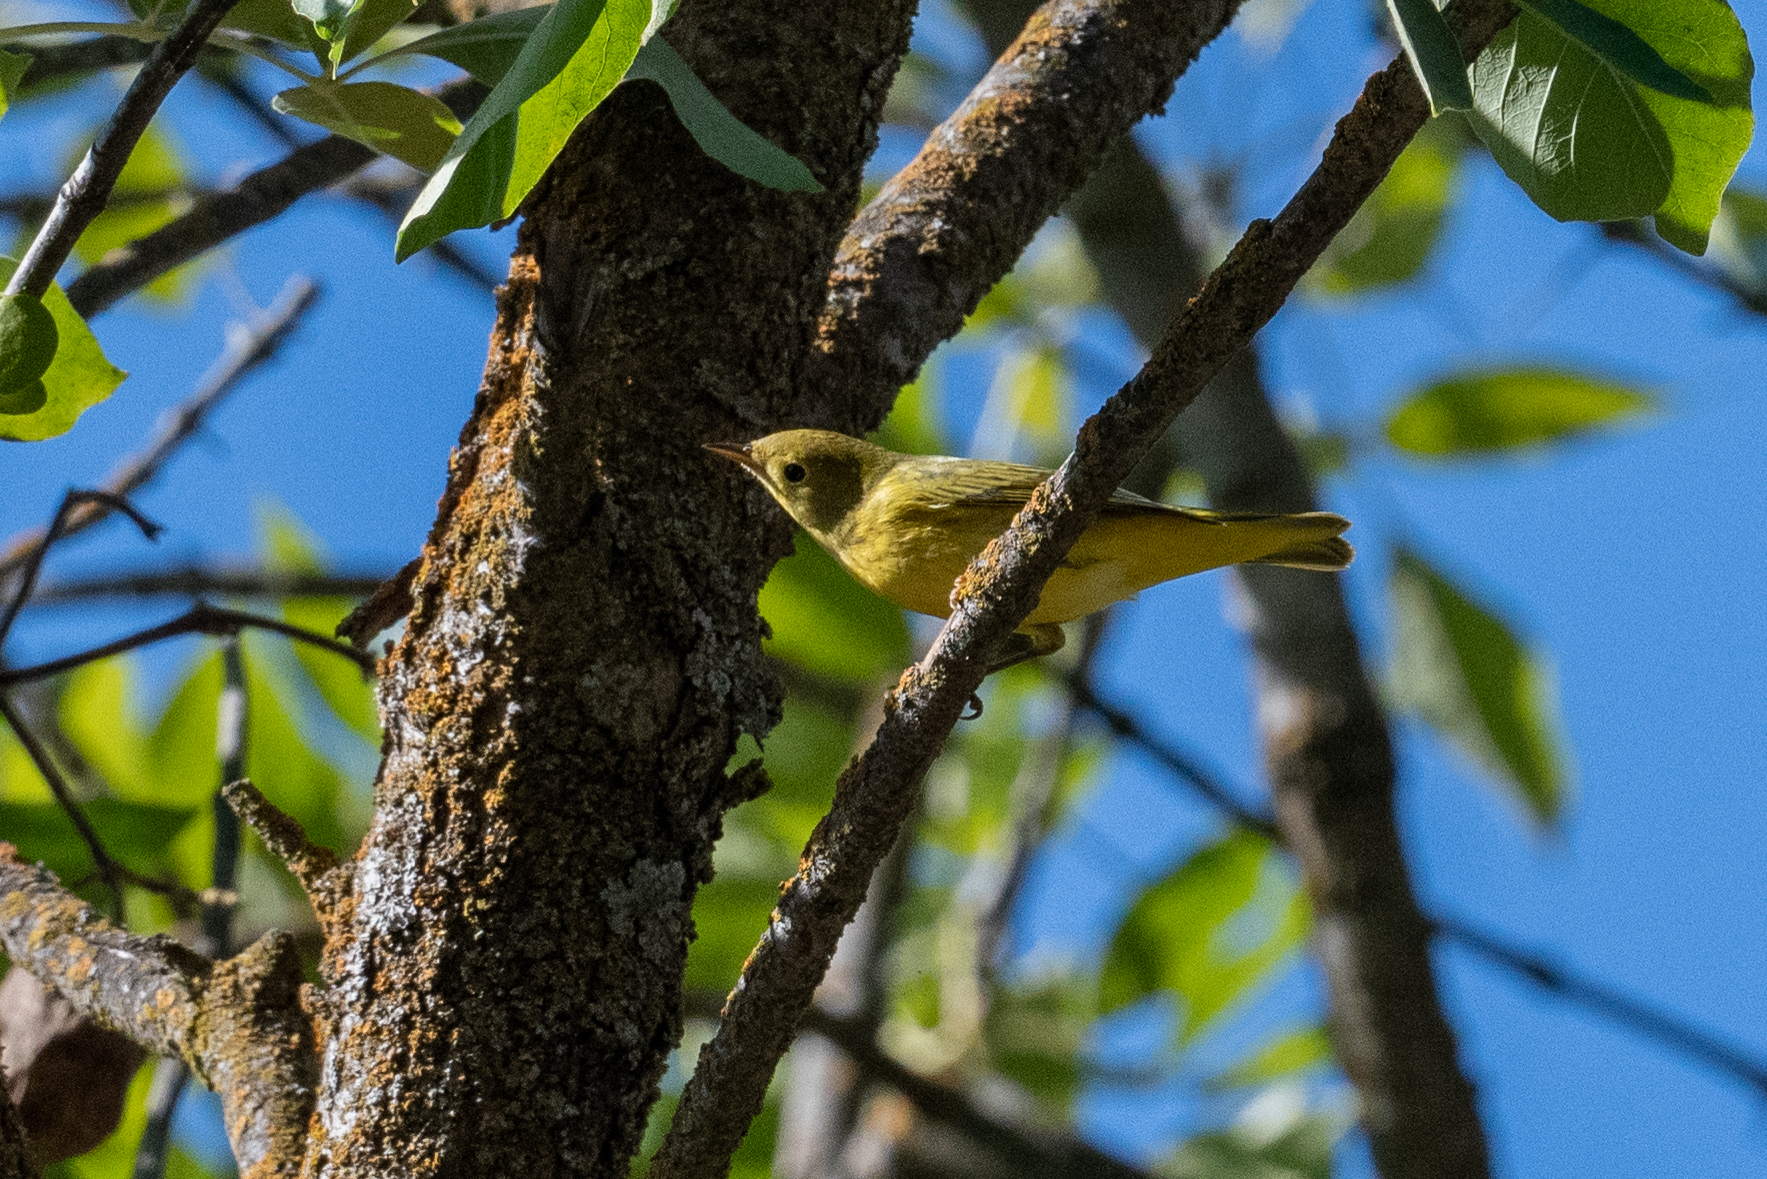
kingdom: Animalia
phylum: Chordata
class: Aves
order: Passeriformes
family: Parulidae
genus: Setophaga
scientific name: Setophaga petechia
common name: Yellow warbler
